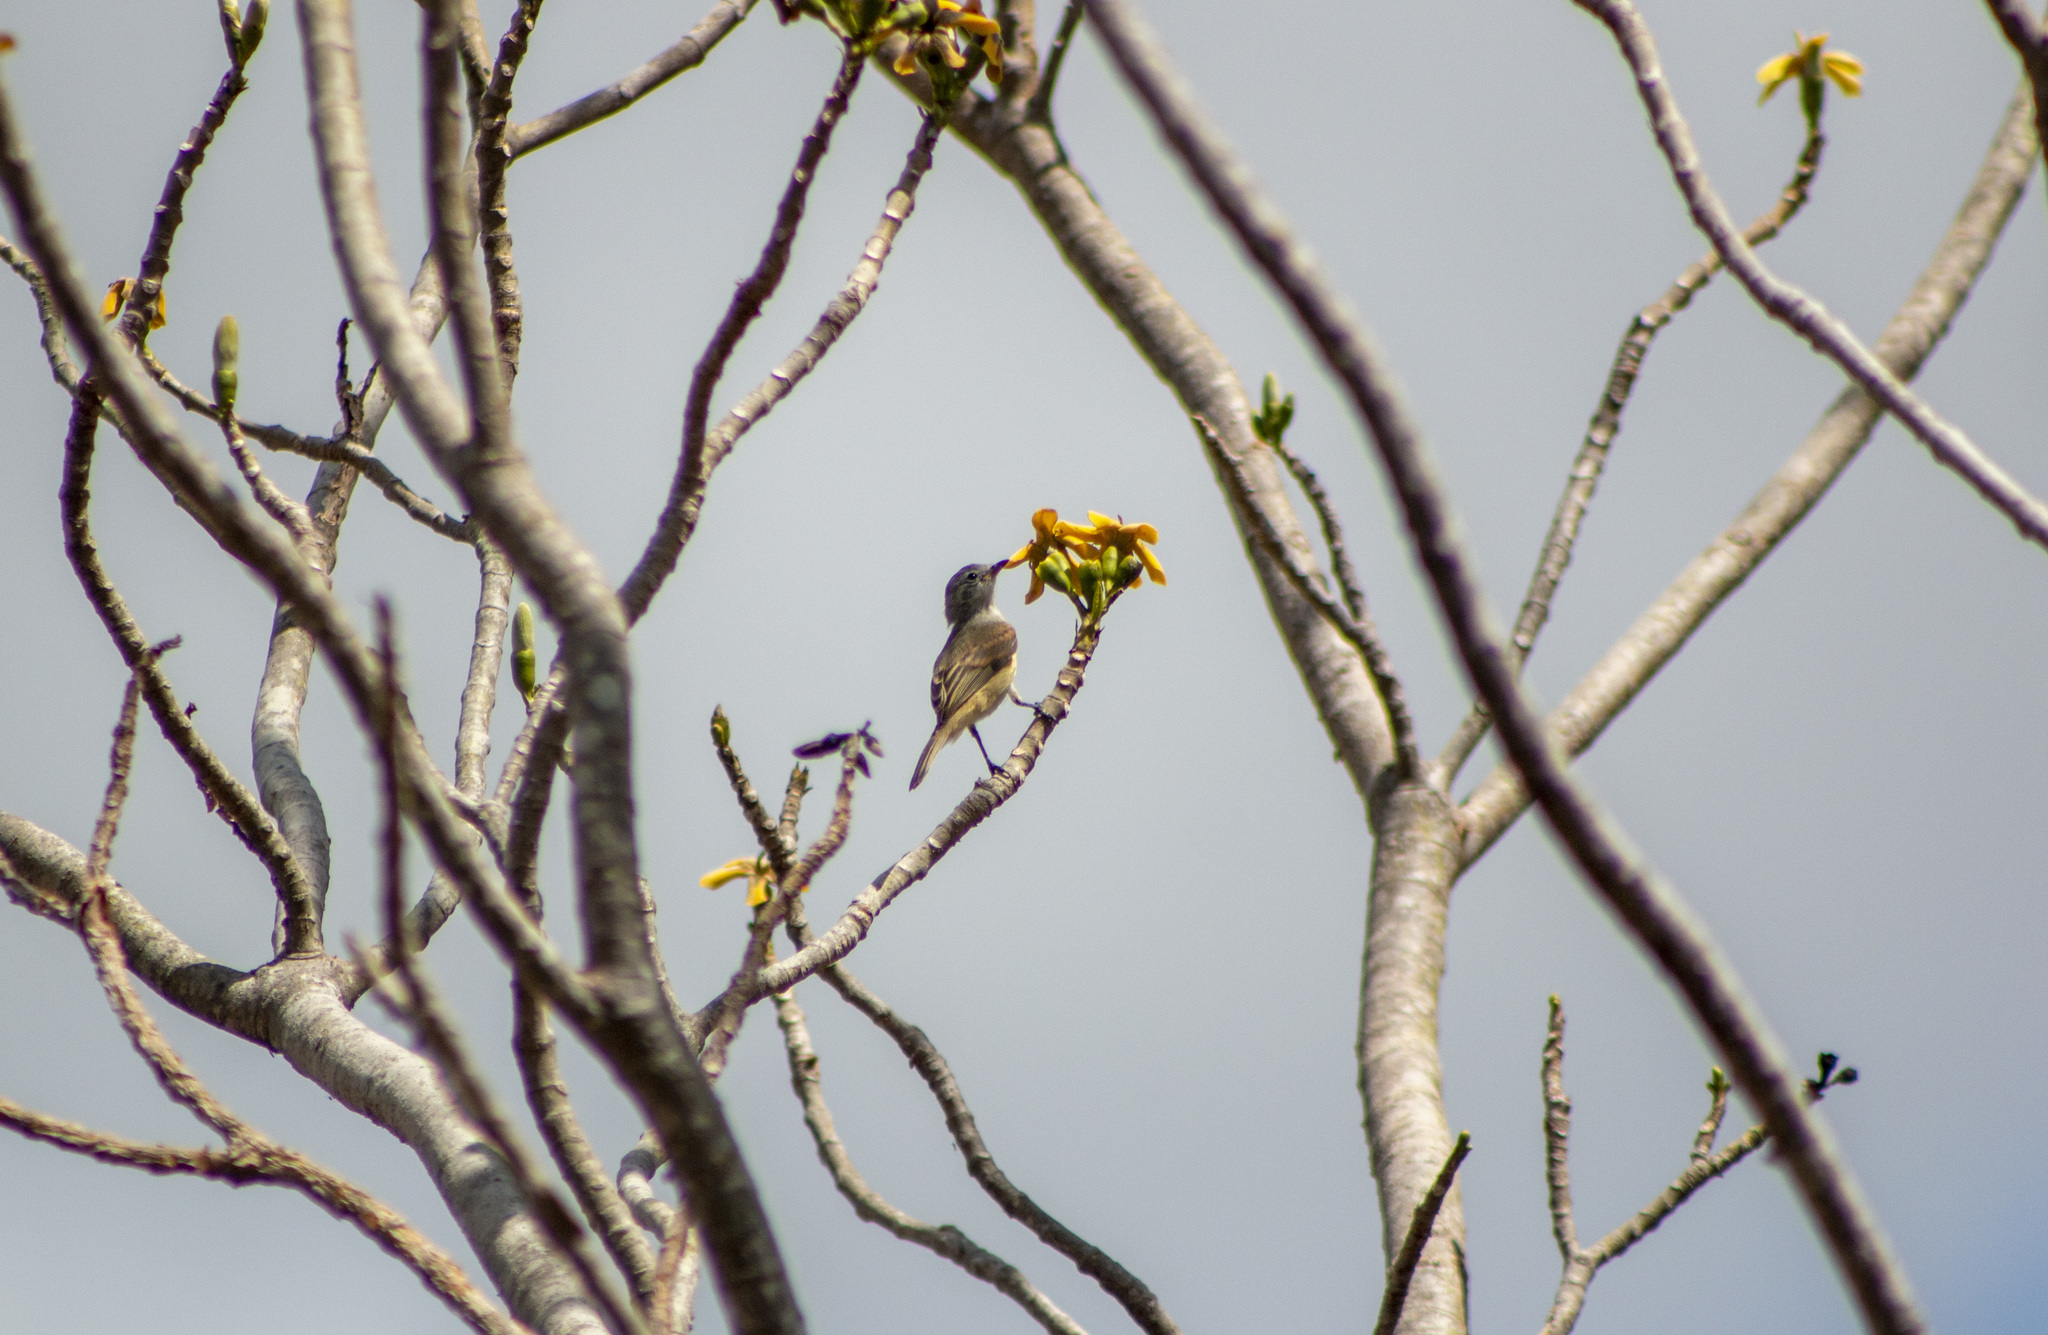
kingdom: Animalia
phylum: Chordata
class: Aves
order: Passeriformes
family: Tyrannidae
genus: Camptostoma
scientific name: Camptostoma obsoletum
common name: Southern beardless-tyrannulet
